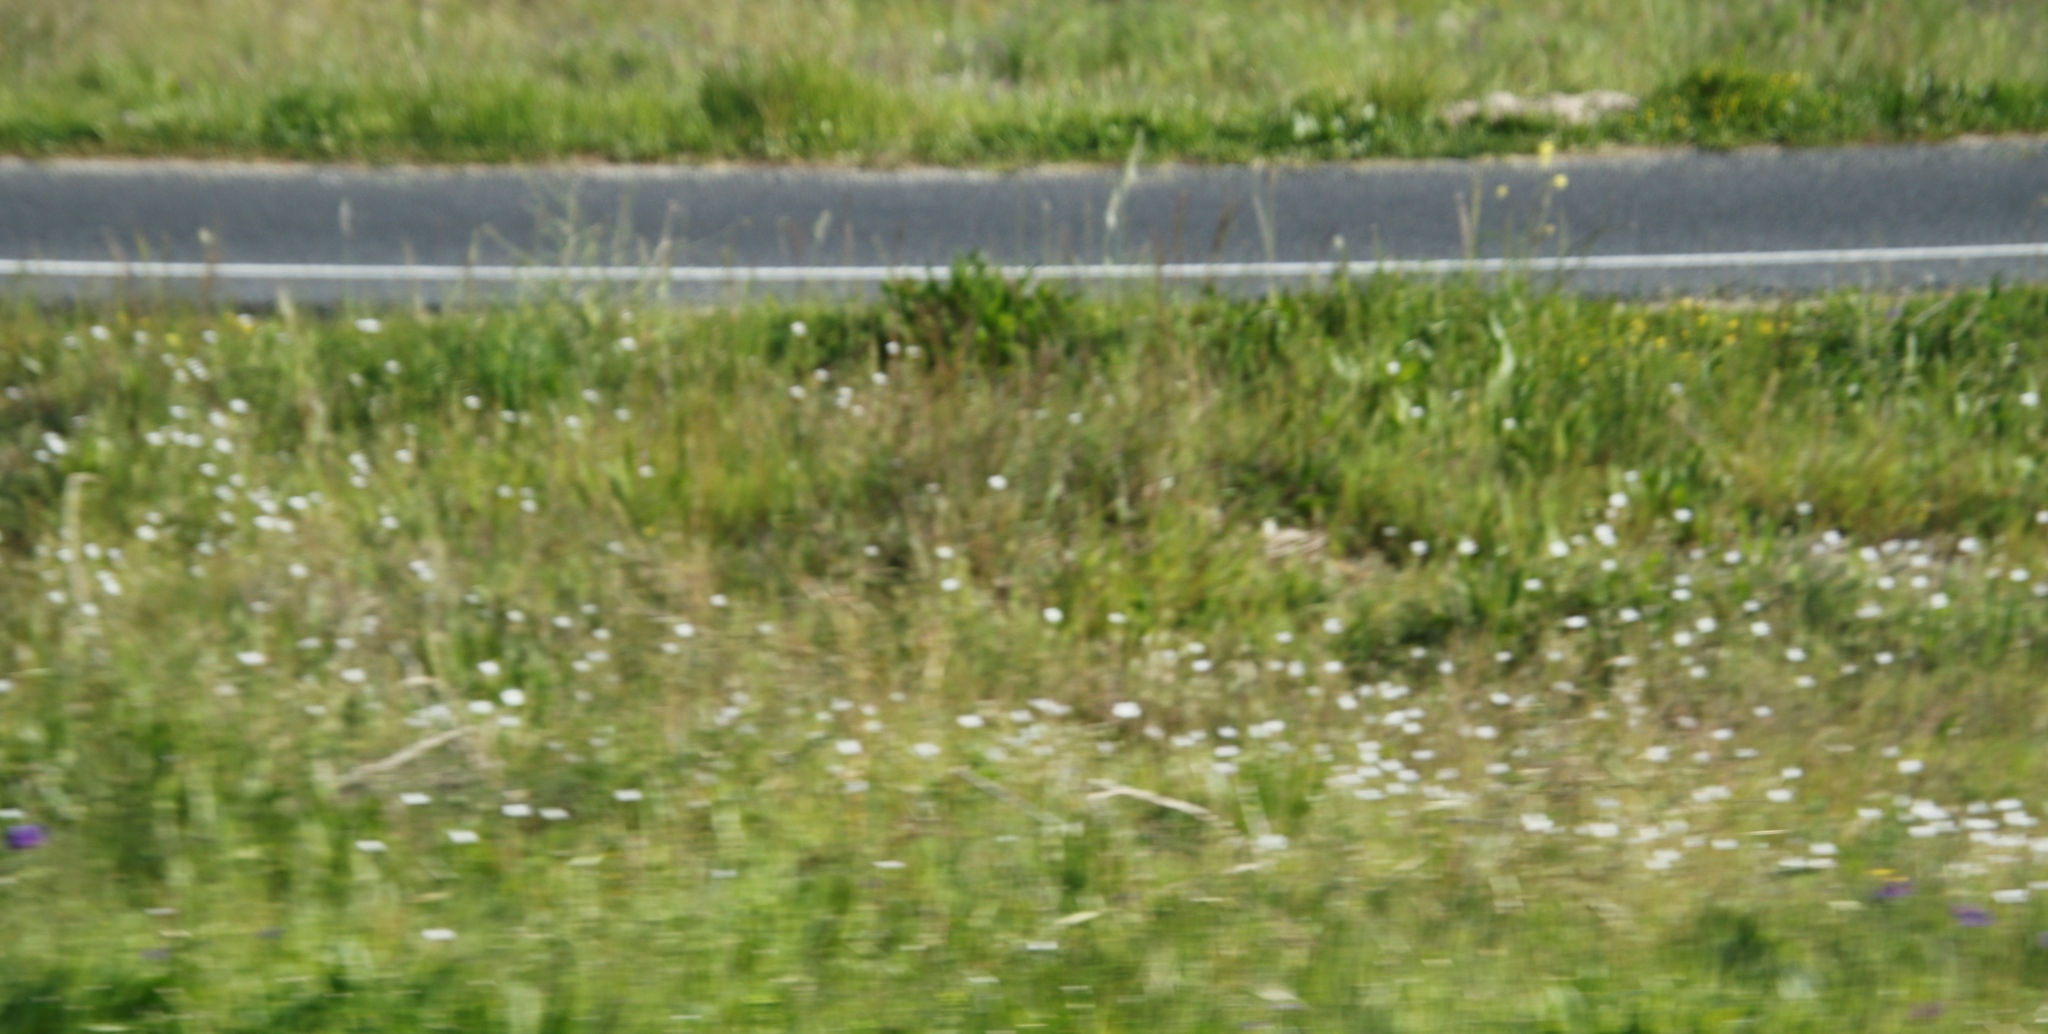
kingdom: Plantae
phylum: Tracheophyta
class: Liliopsida
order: Asparagales
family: Iridaceae
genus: Sparaxis
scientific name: Sparaxis bulbifera
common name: Harlequin-flower
